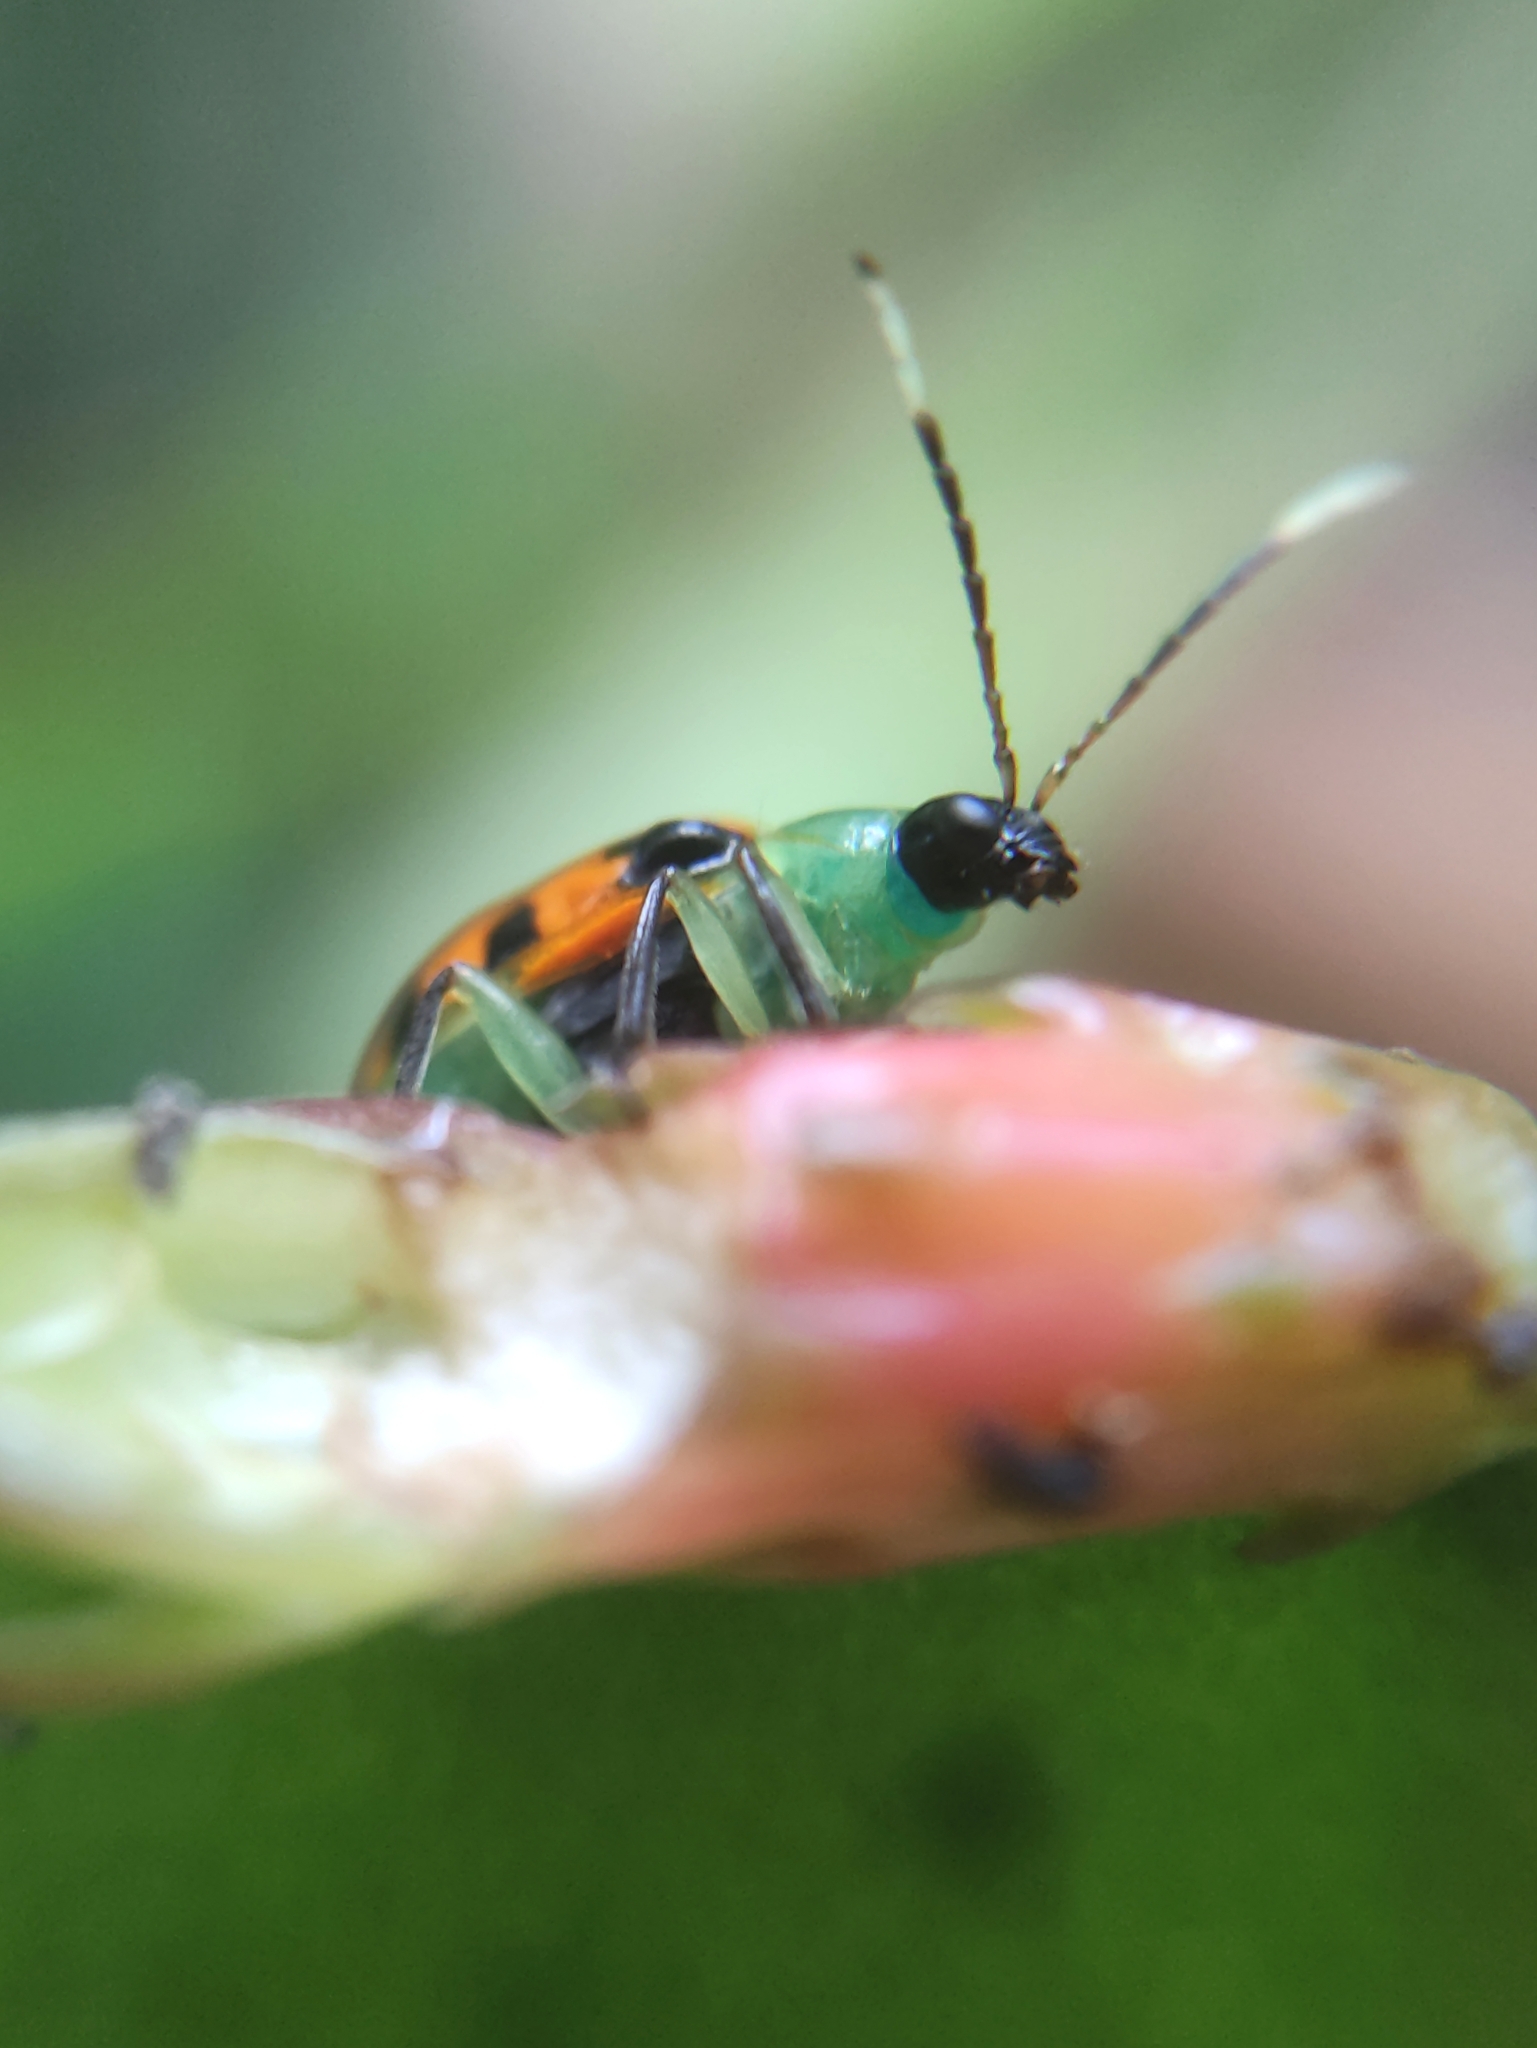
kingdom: Animalia
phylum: Arthropoda
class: Insecta
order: Coleoptera
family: Chrysomelidae
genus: Diabrotica
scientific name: Diabrotica limitata
